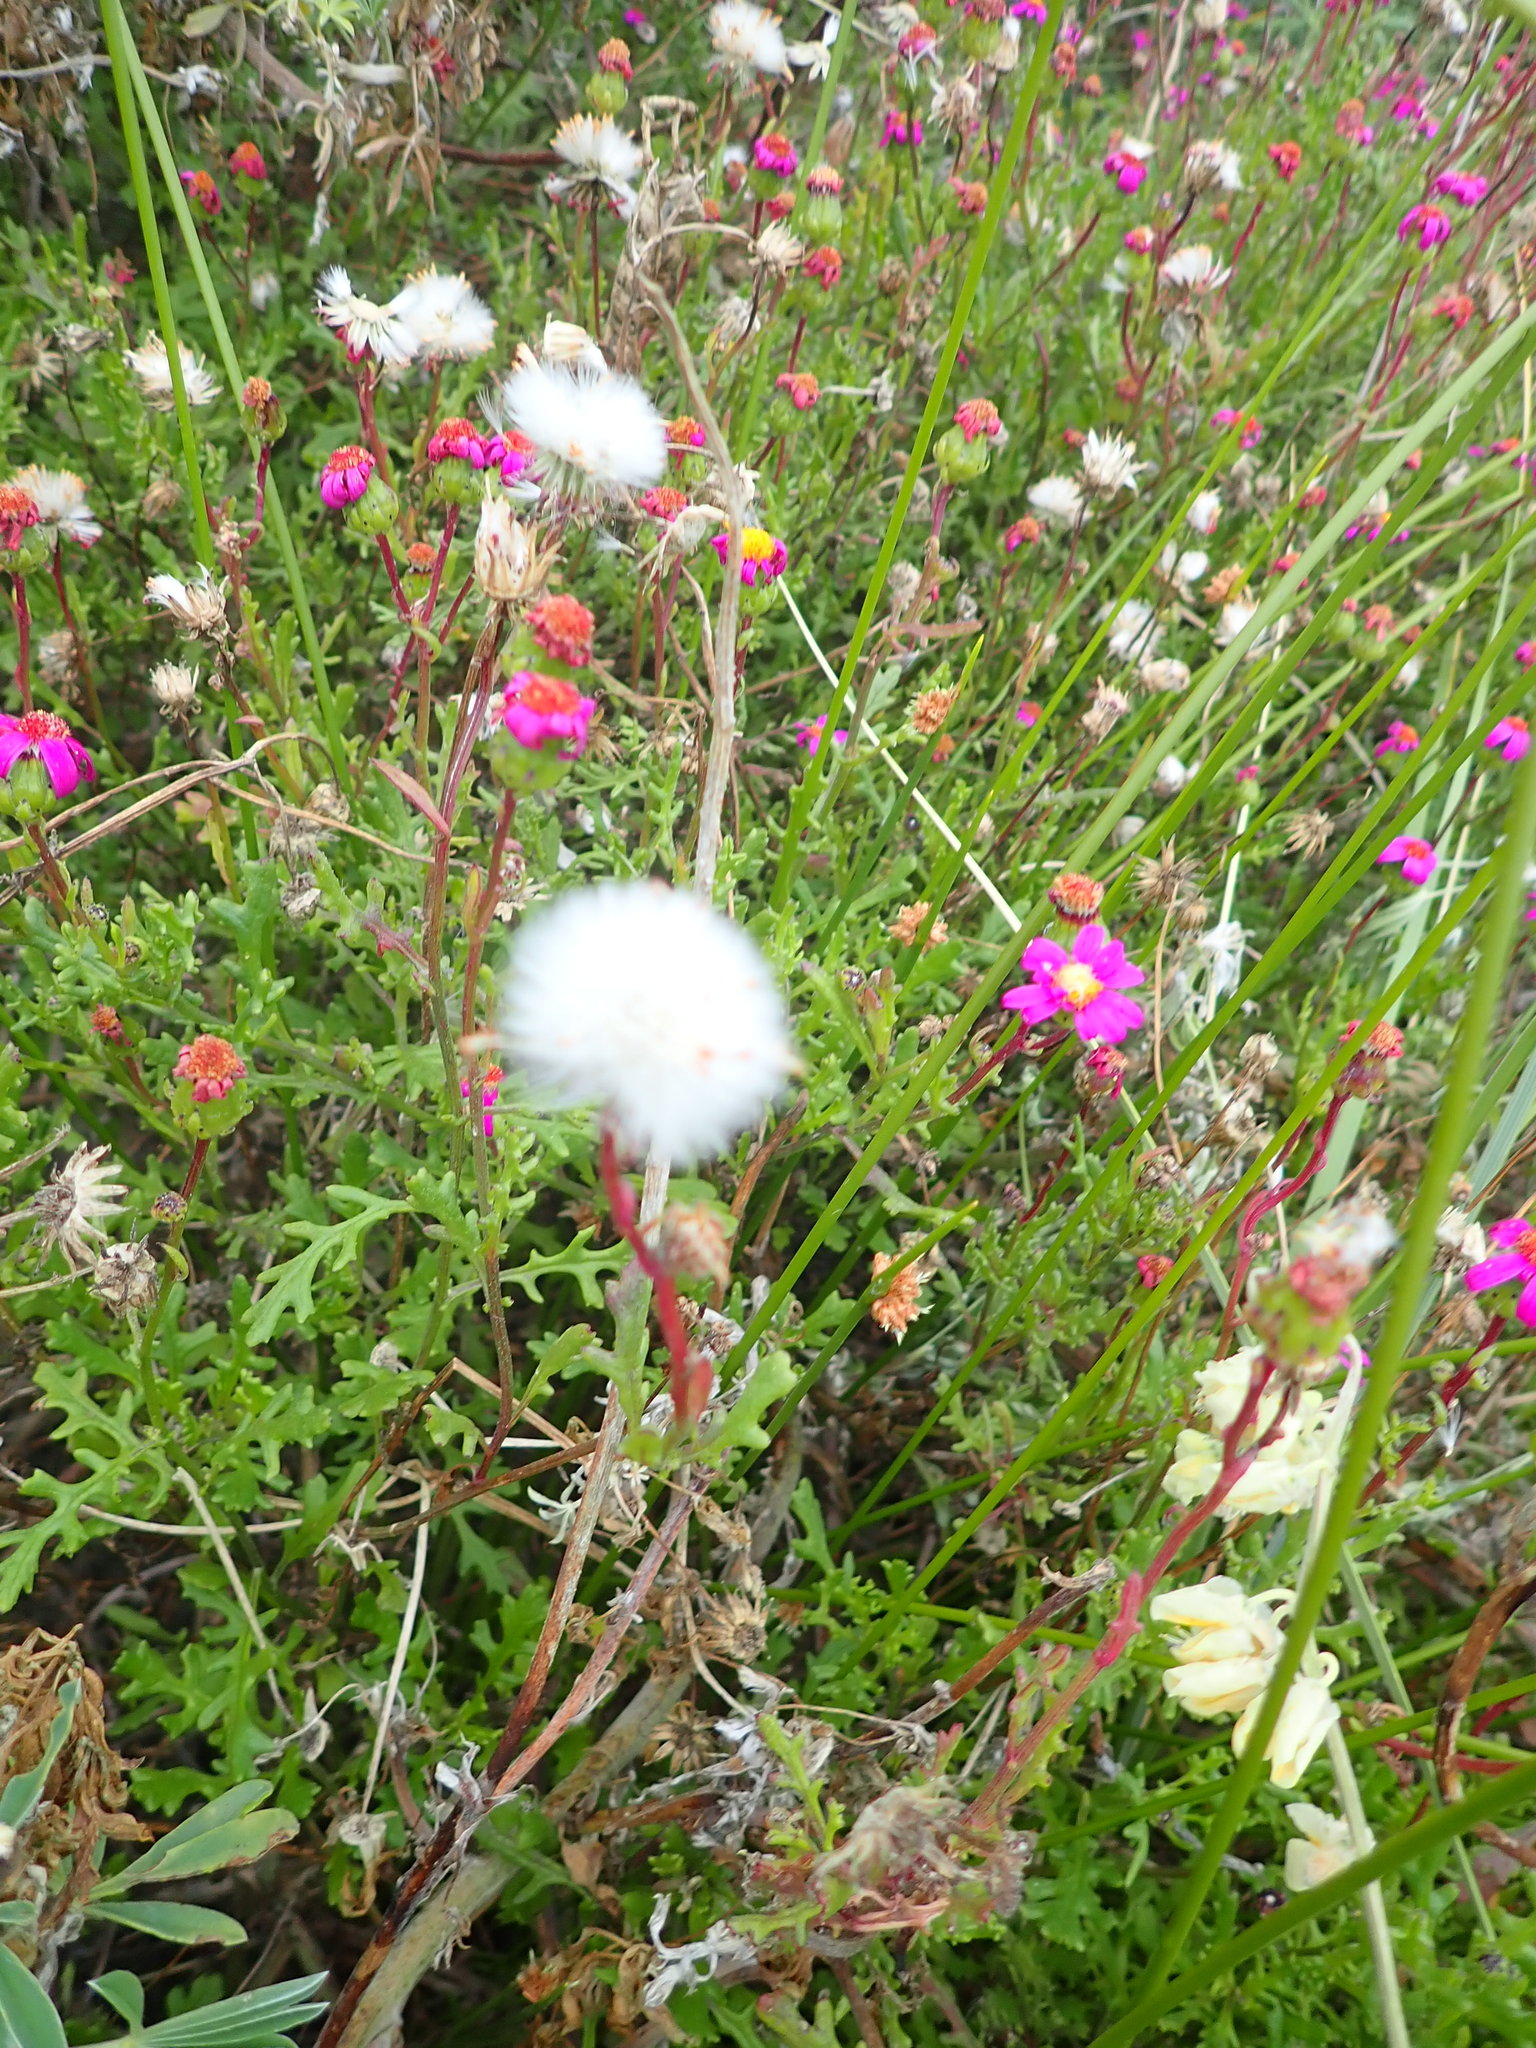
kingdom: Plantae
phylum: Tracheophyta
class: Magnoliopsida
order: Asterales
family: Asteraceae
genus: Senecio
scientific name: Senecio elegans
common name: Purple groundsel
